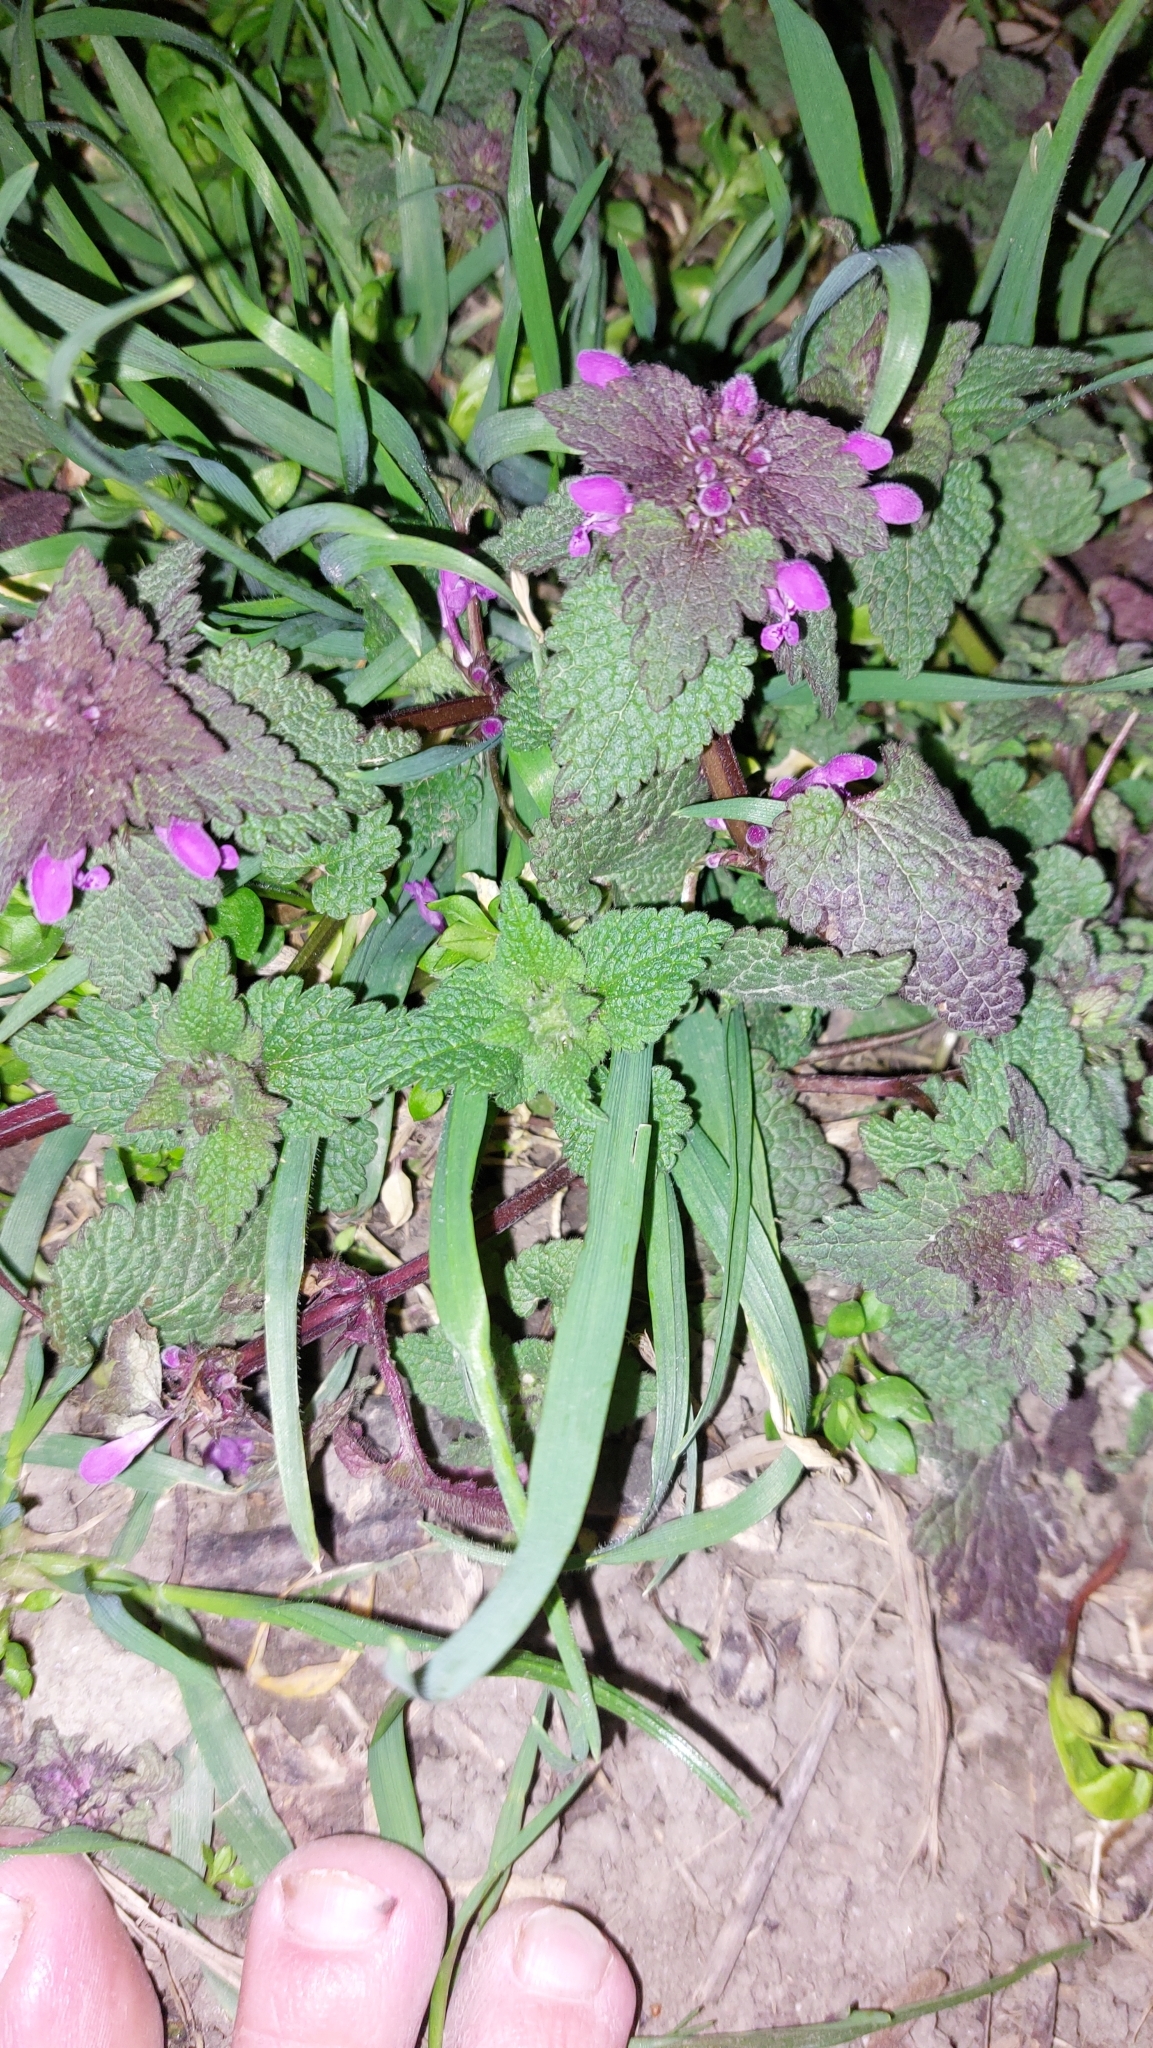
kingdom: Plantae
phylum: Tracheophyta
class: Magnoliopsida
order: Lamiales
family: Lamiaceae
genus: Lamium
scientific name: Lamium purpureum
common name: Red dead-nettle
